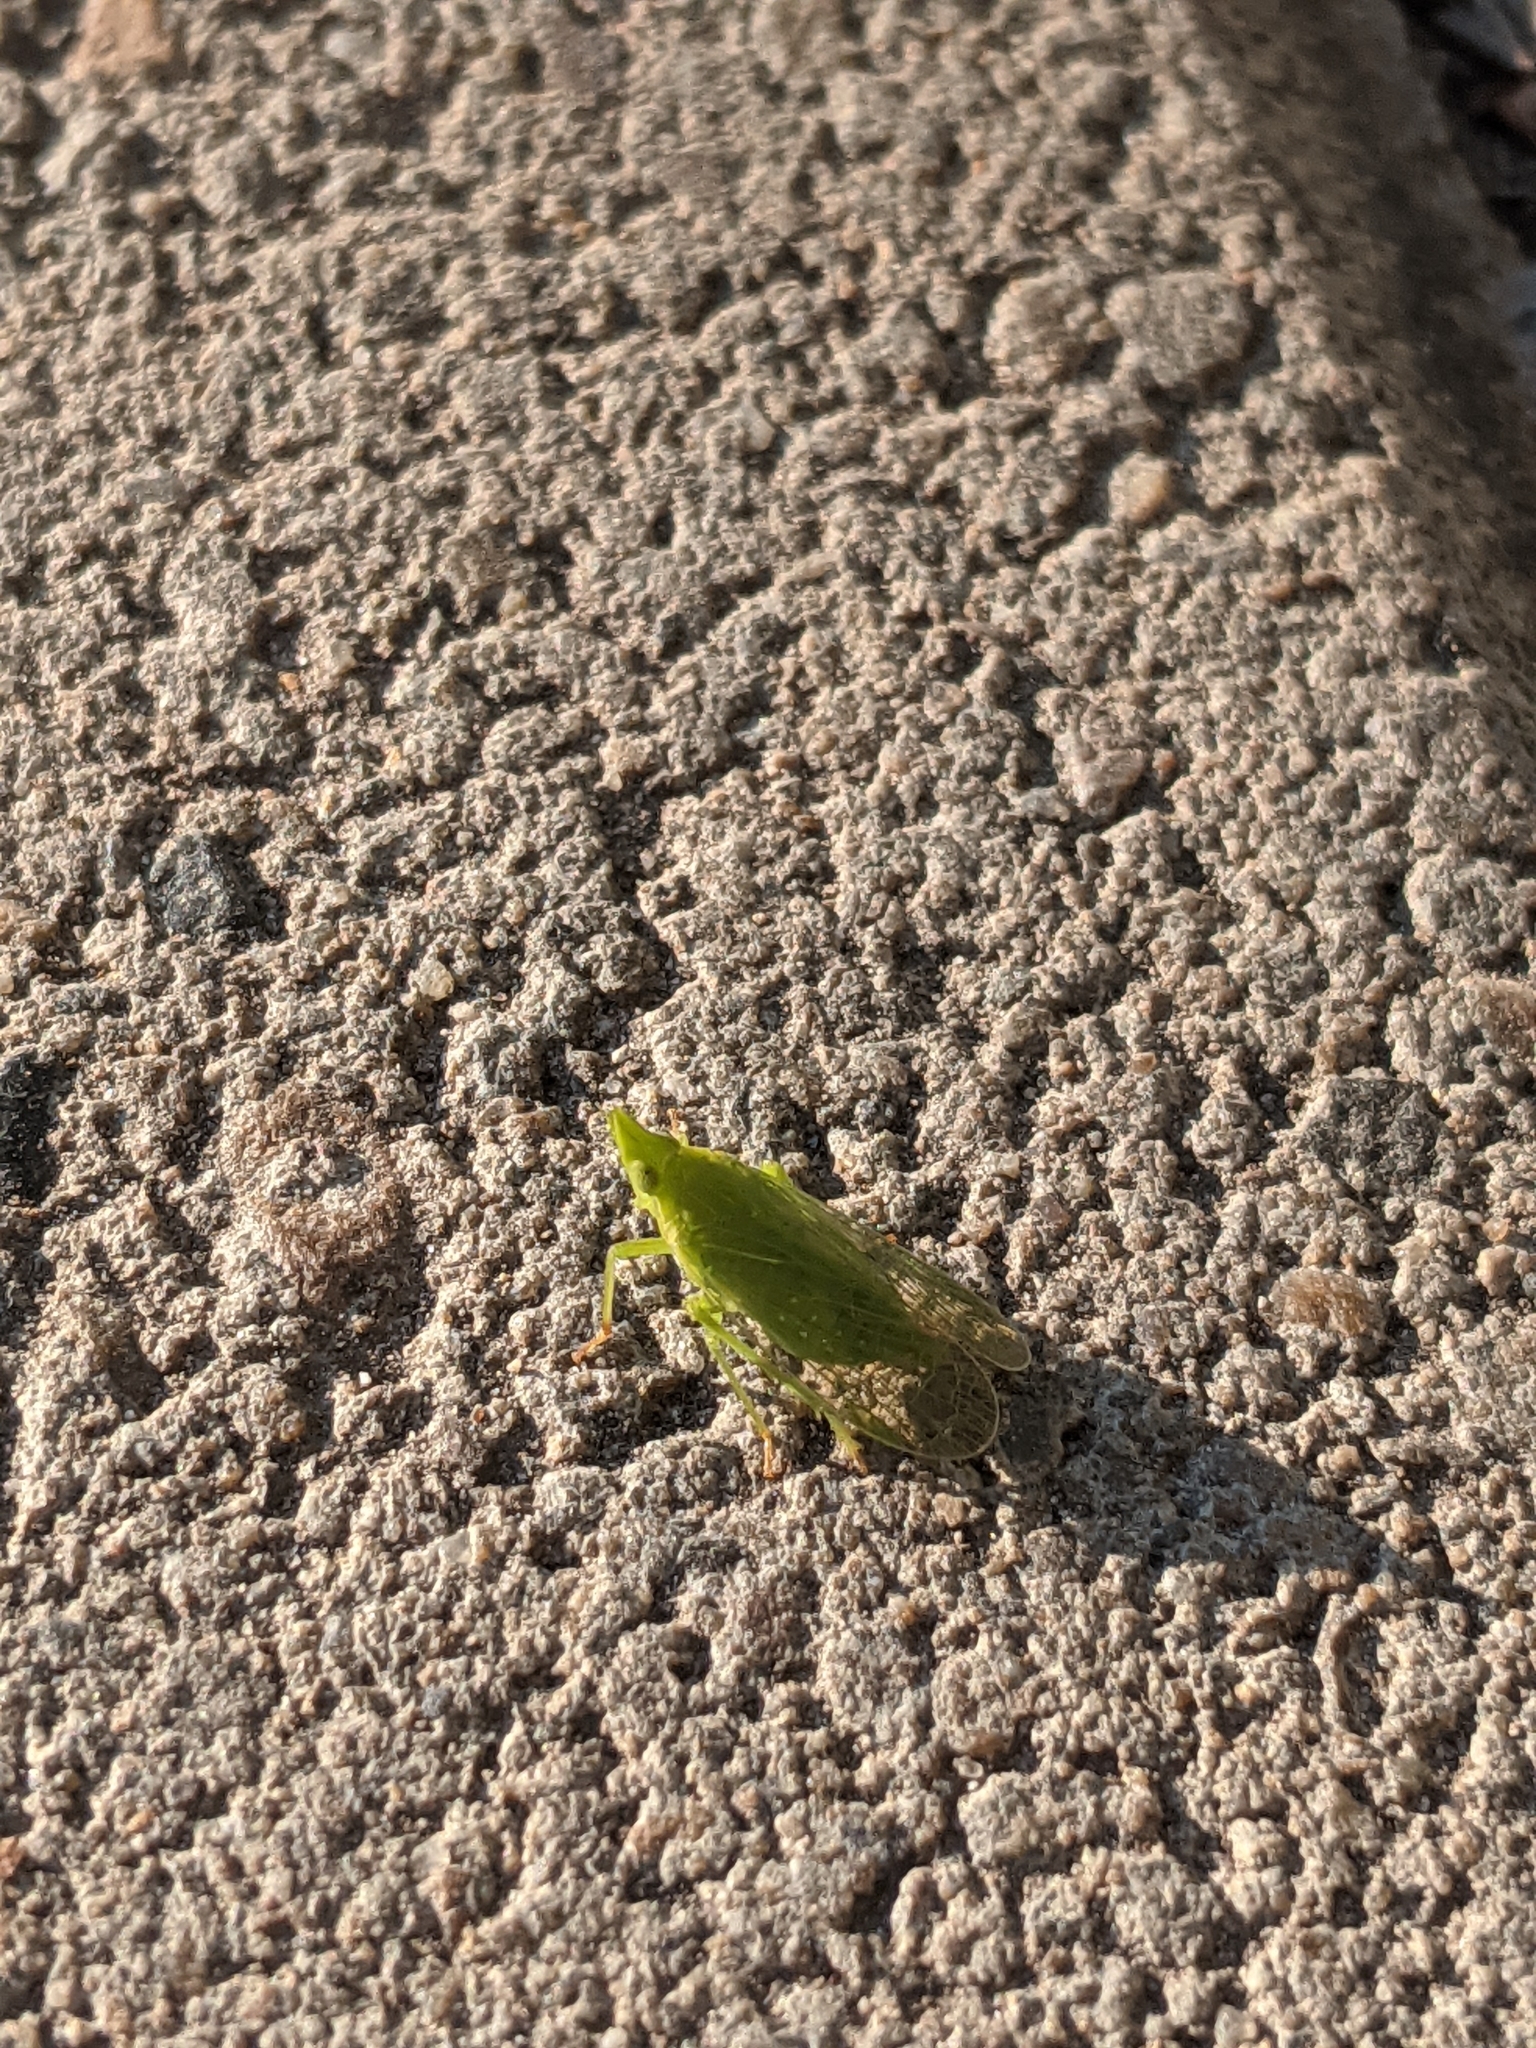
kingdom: Animalia
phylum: Arthropoda
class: Insecta
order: Hemiptera
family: Dictyopharidae
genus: Dictyophara
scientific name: Dictyophara europaea
